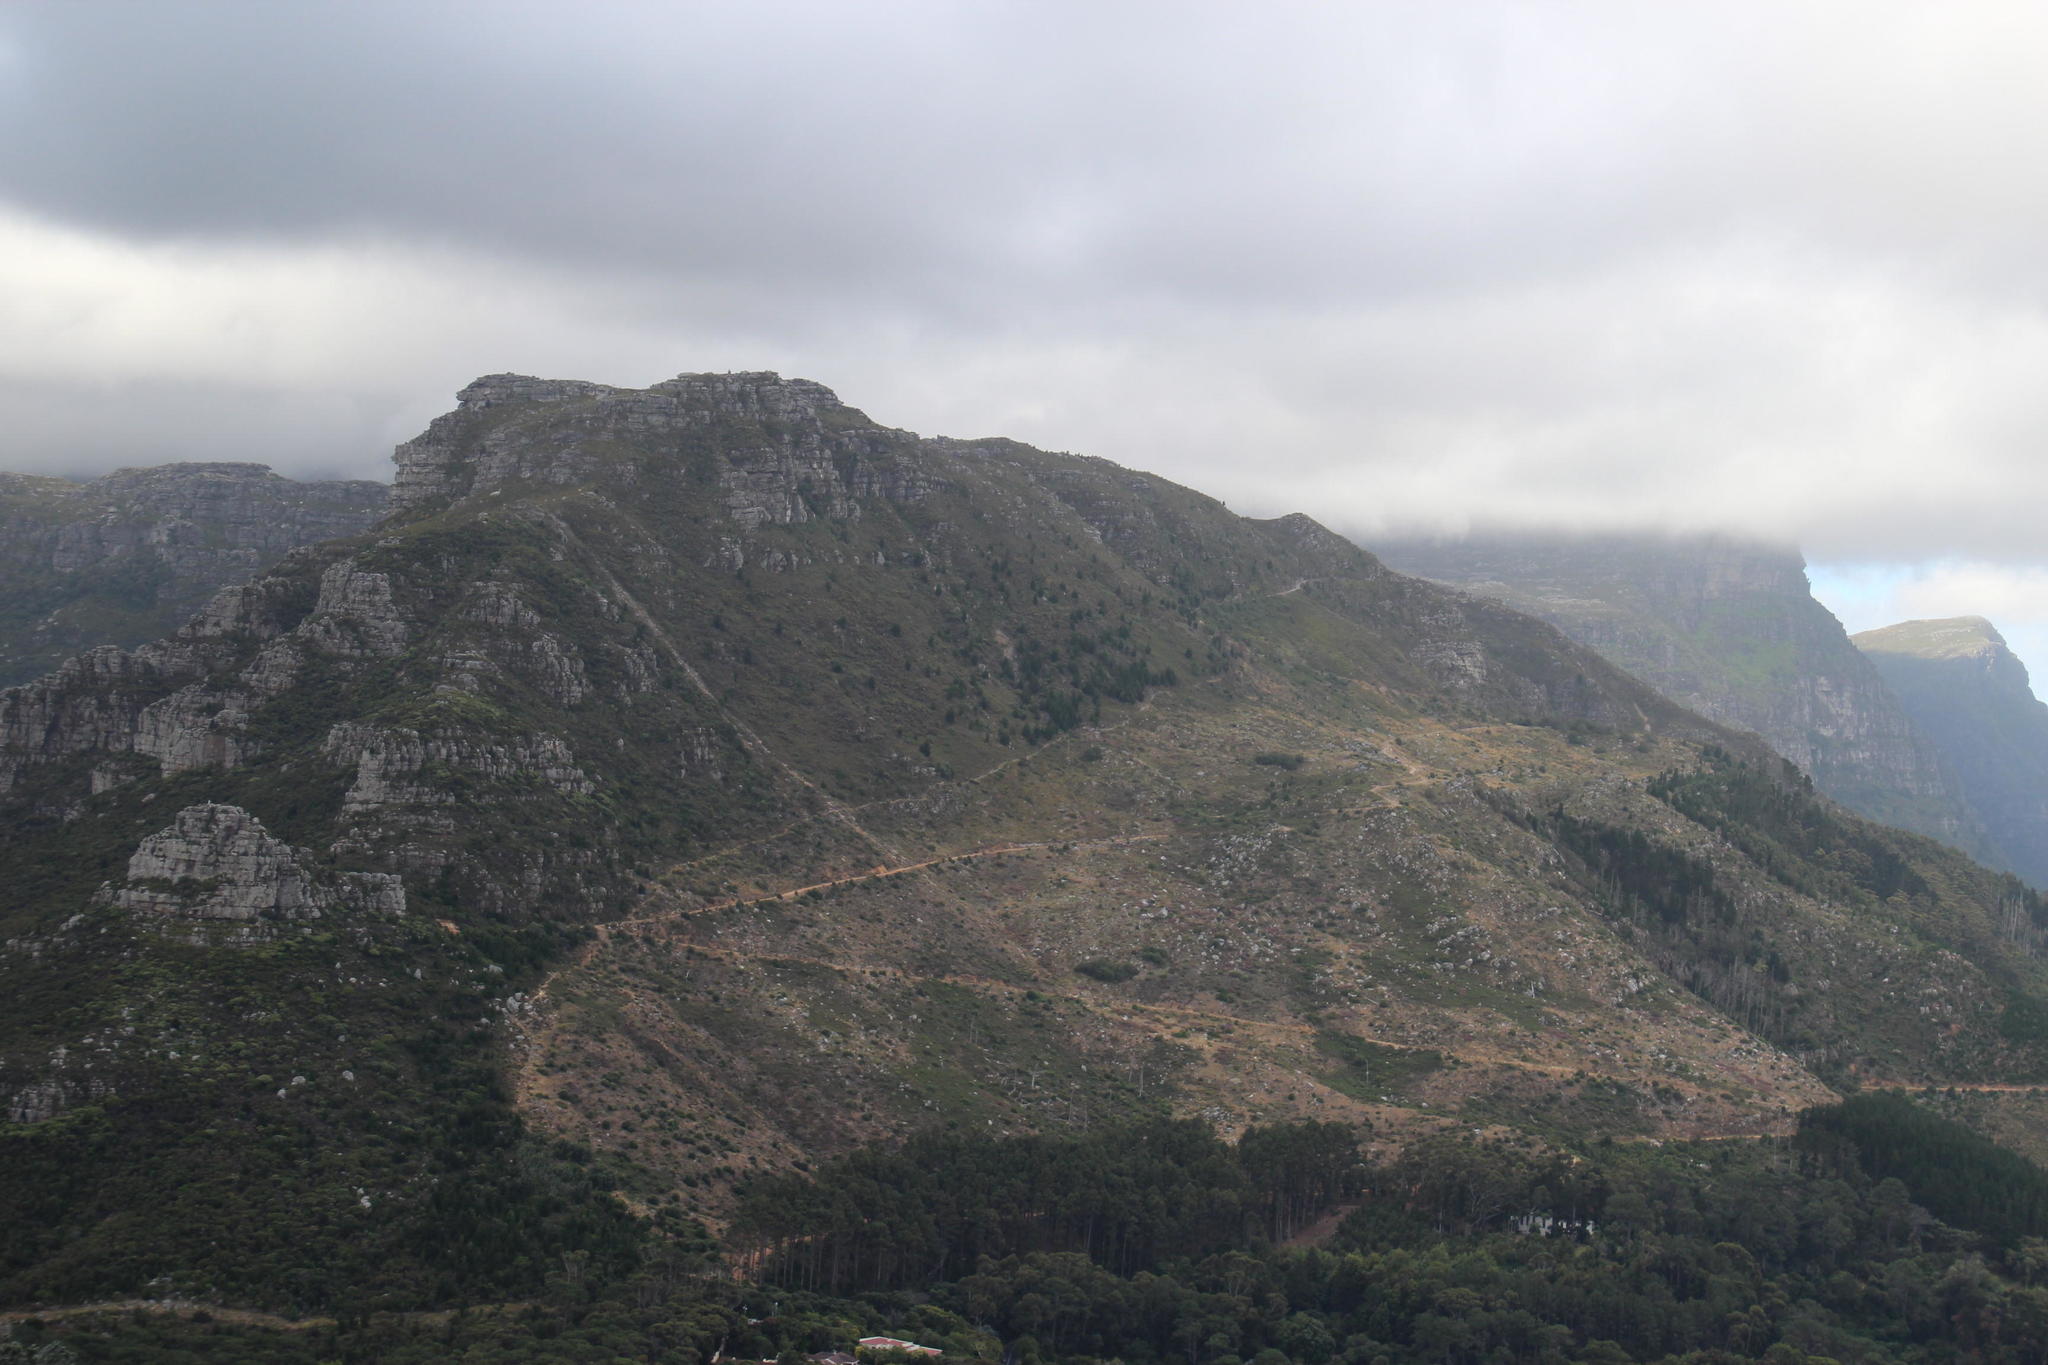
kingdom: Plantae
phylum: Tracheophyta
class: Pinopsida
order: Pinales
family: Pinaceae
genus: Pinus
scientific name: Pinus pinaster
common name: Maritime pine
